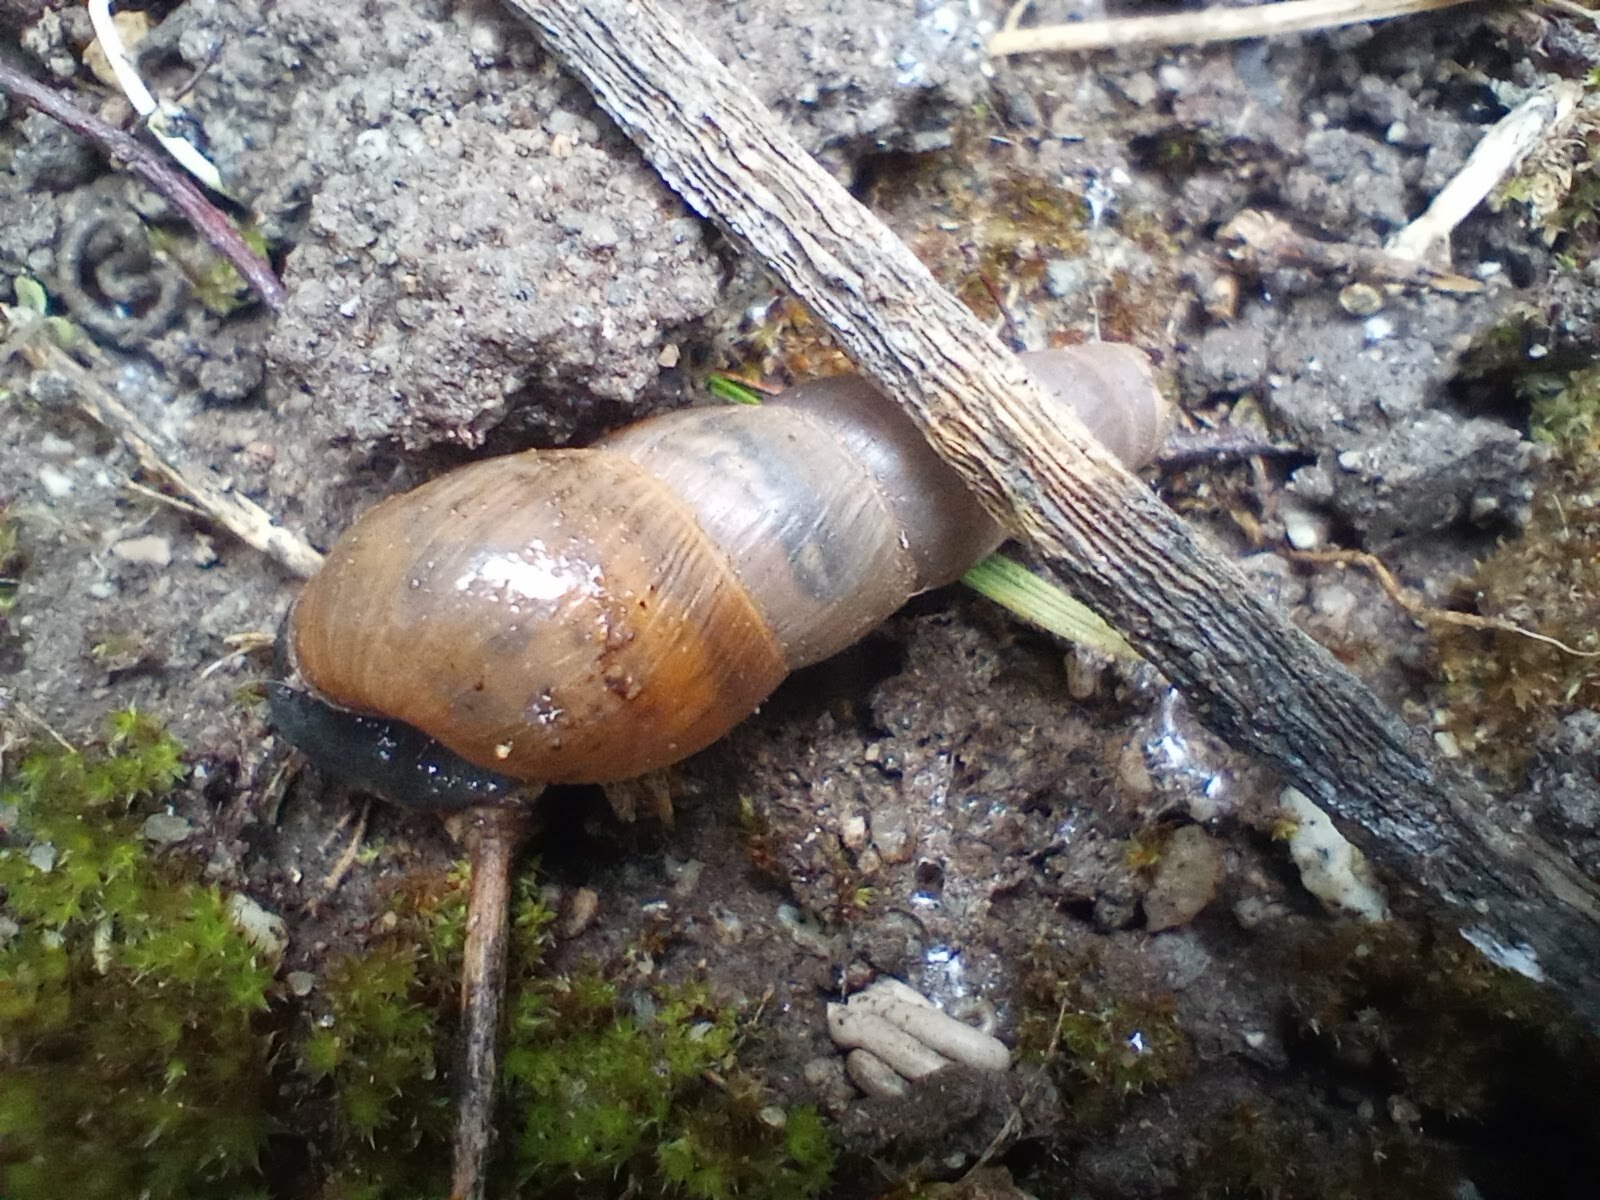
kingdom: Animalia
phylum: Mollusca
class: Gastropoda
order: Stylommatophora
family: Achatinidae
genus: Rumina
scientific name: Rumina decollata
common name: Decollate snail
